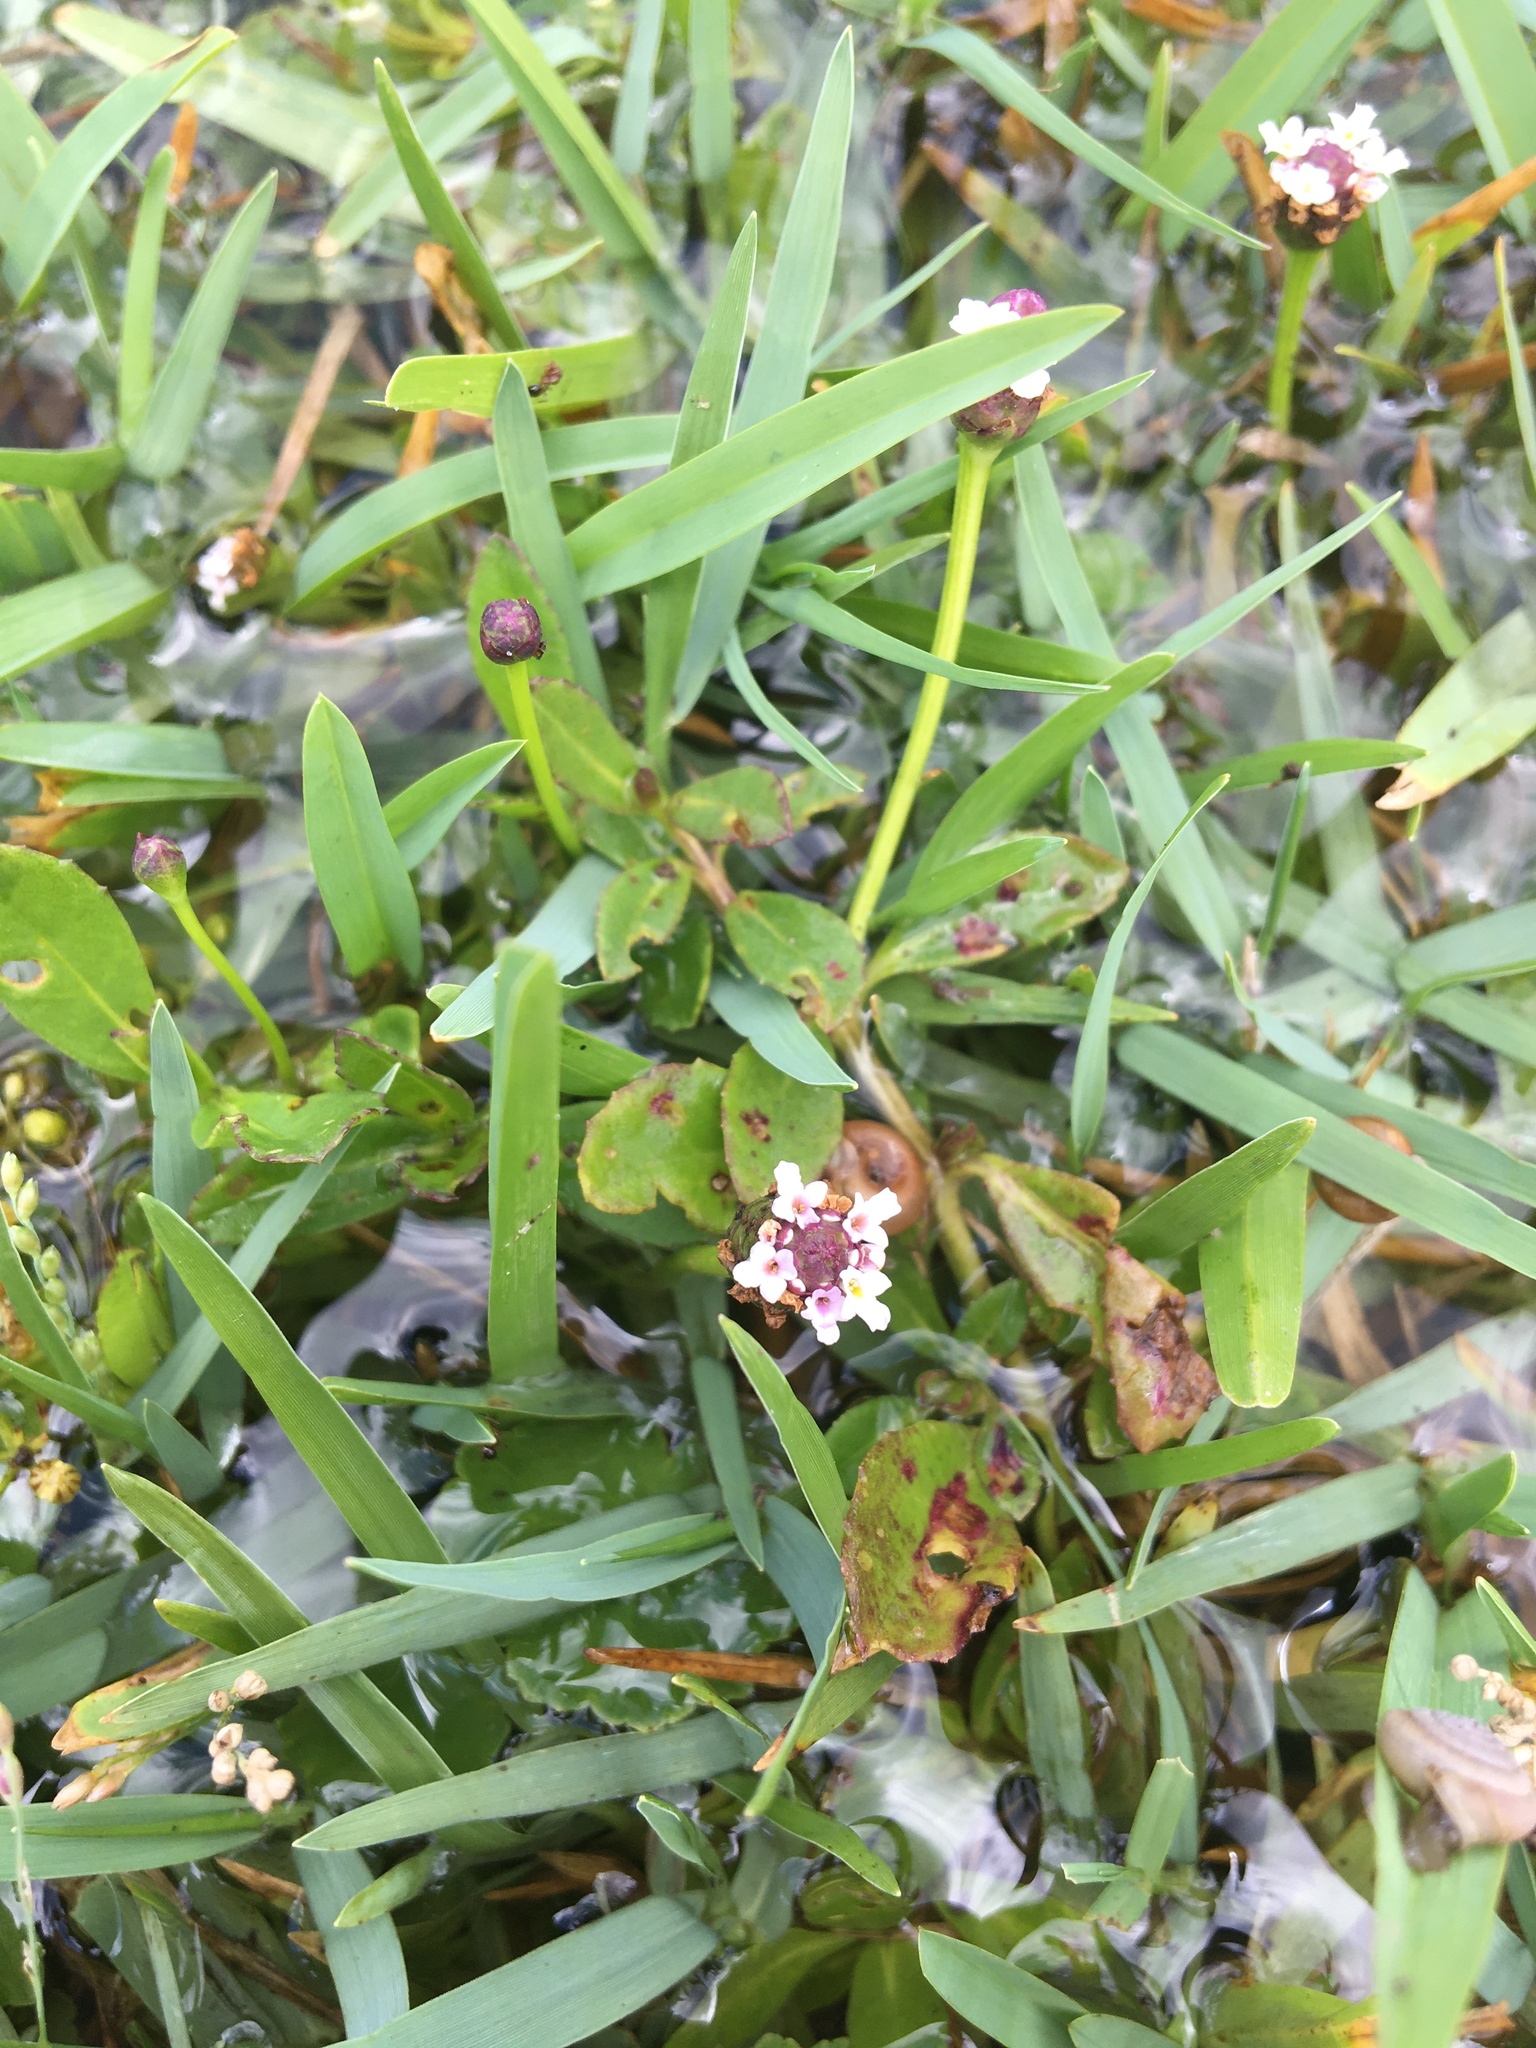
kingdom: Plantae
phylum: Tracheophyta
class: Magnoliopsida
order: Lamiales
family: Verbenaceae
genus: Phyla
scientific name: Phyla nodiflora
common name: Frogfruit
